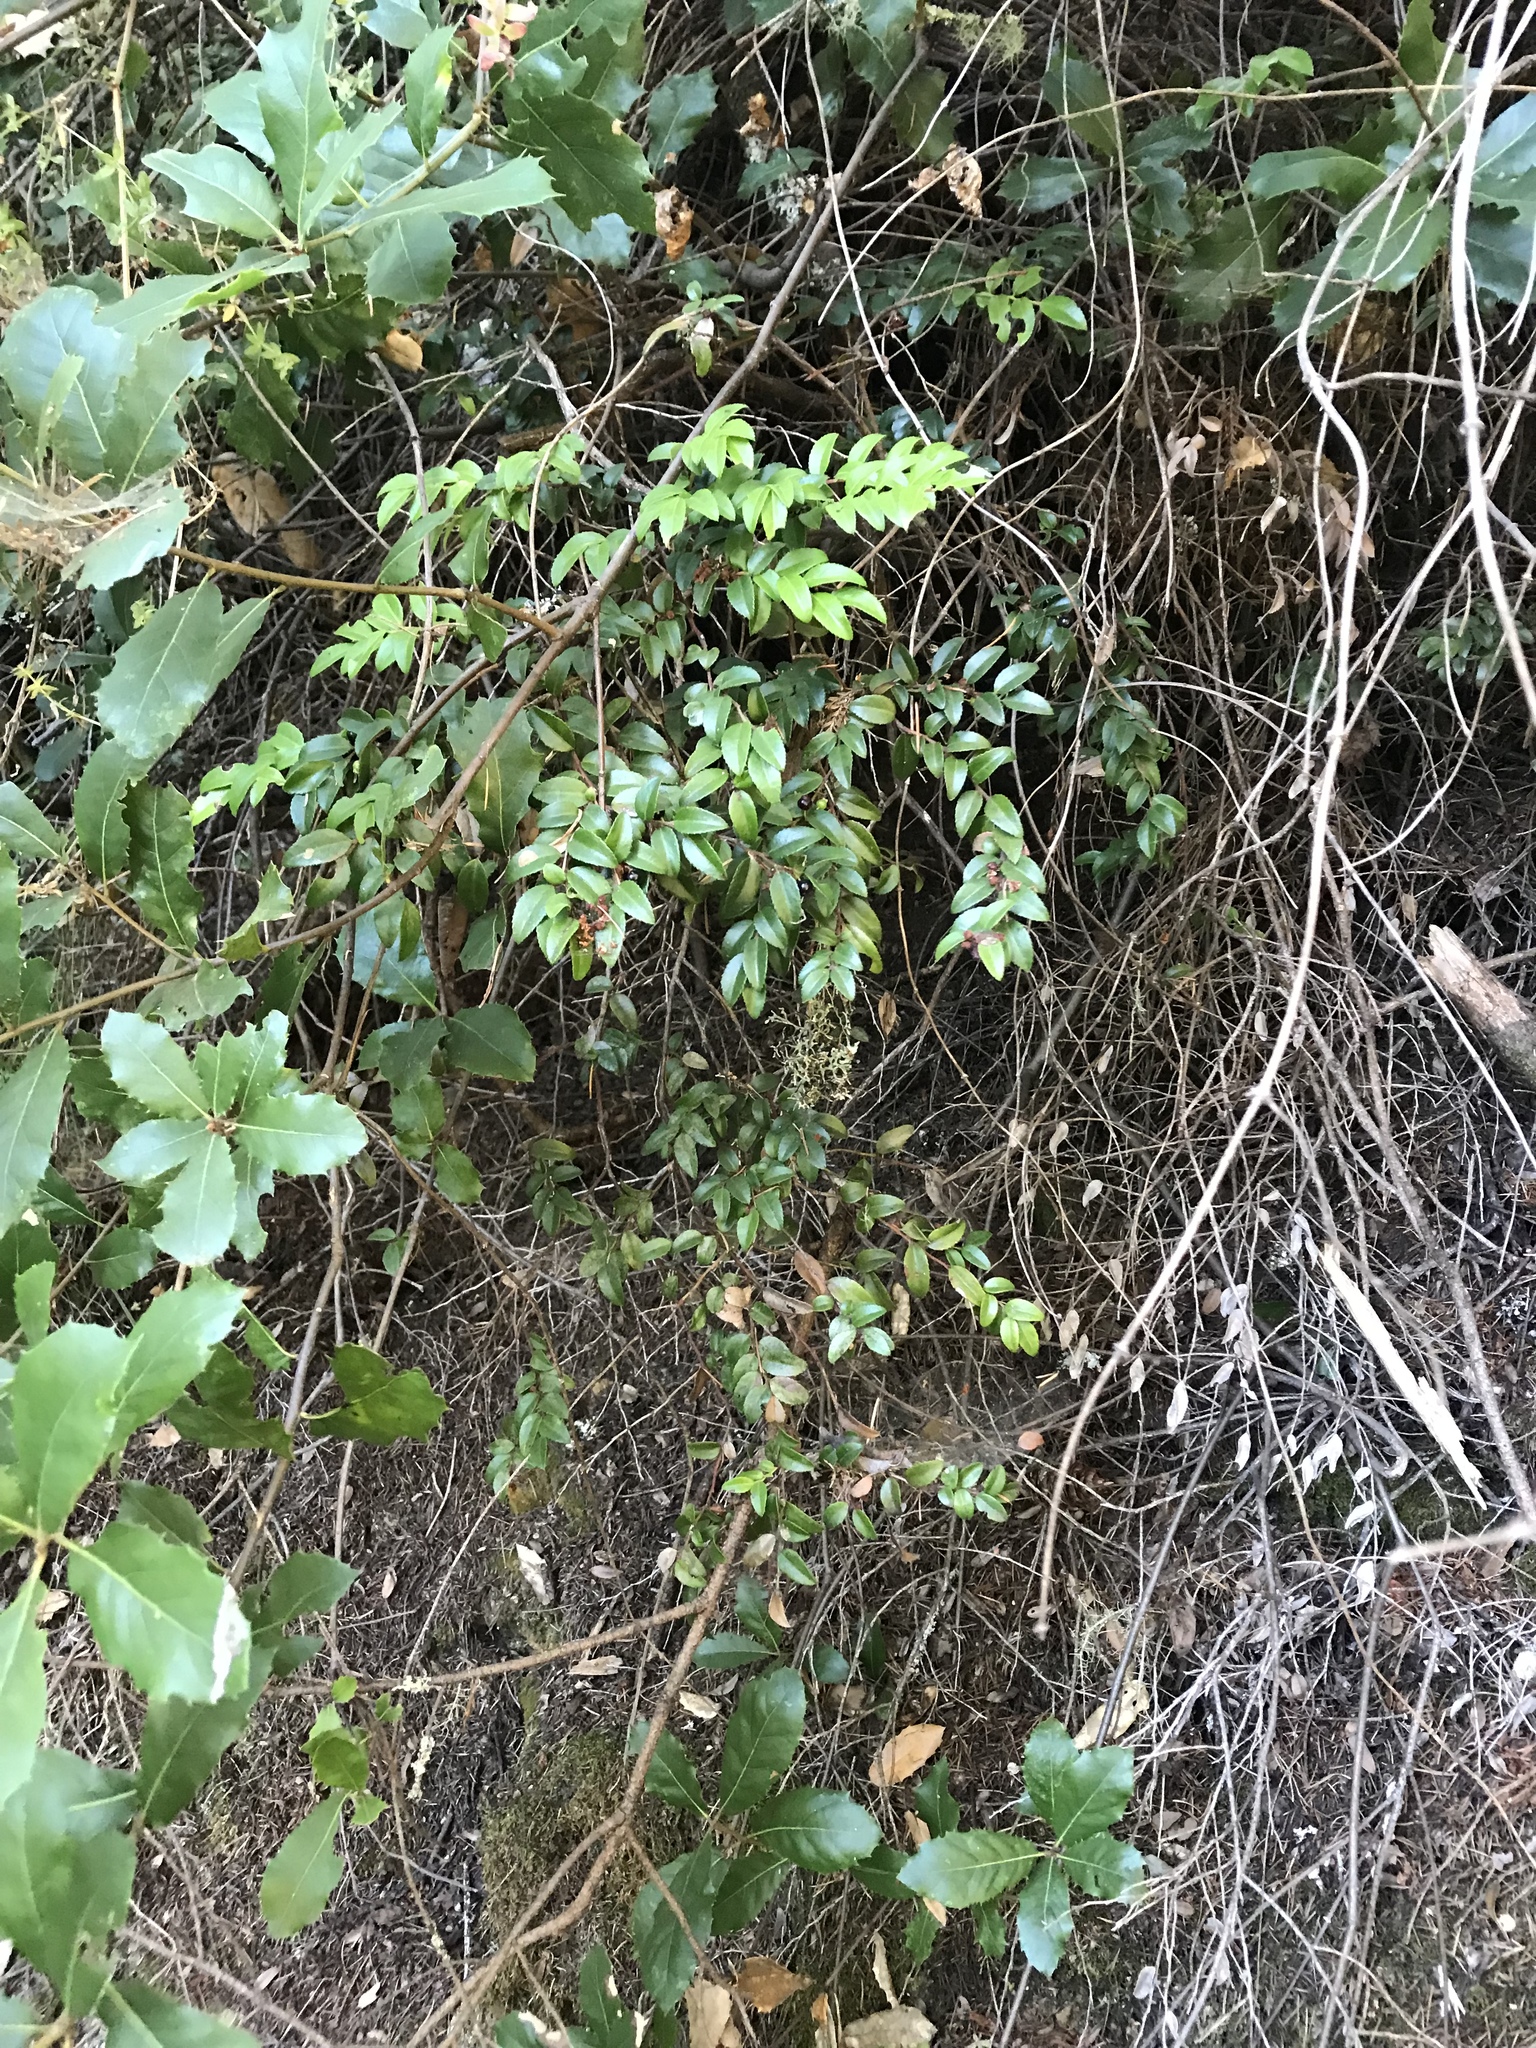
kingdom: Plantae
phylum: Tracheophyta
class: Magnoliopsida
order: Ericales
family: Ericaceae
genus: Vaccinium
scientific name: Vaccinium ovatum
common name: California-huckleberry
